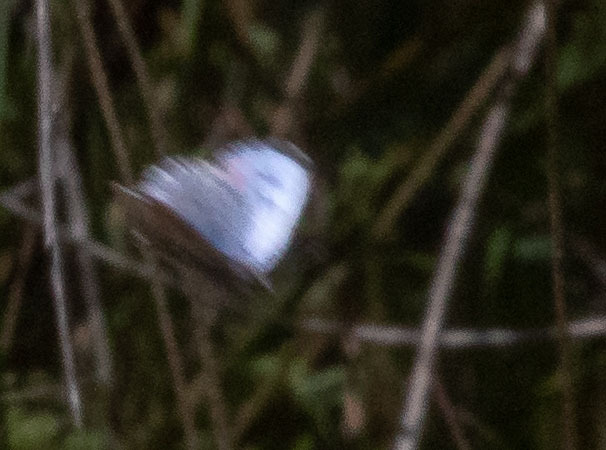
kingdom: Animalia
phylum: Arthropoda
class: Insecta
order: Lepidoptera
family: Lycaenidae
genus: Philotes
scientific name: Philotes sonorensis
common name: Sonoran blue
